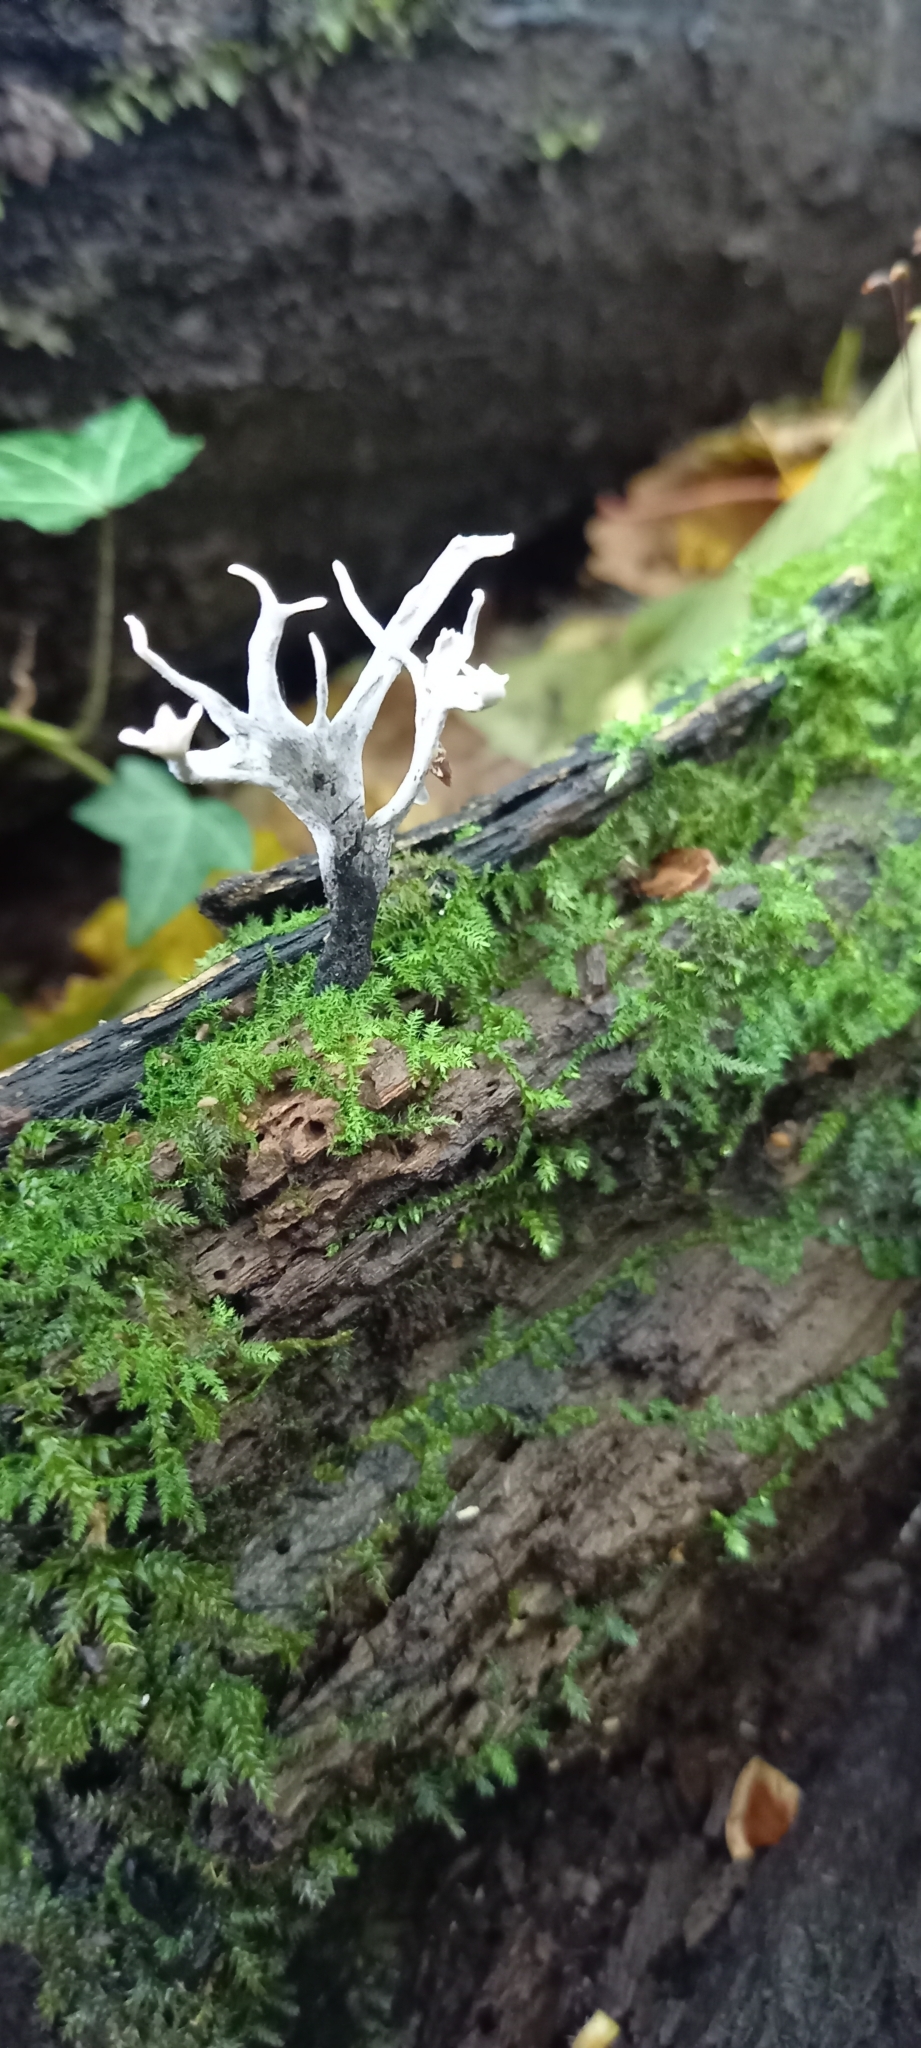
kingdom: Fungi
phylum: Ascomycota
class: Sordariomycetes
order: Xylariales
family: Xylariaceae
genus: Xylaria
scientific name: Xylaria hypoxylon
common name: Candle-snuff fungus
